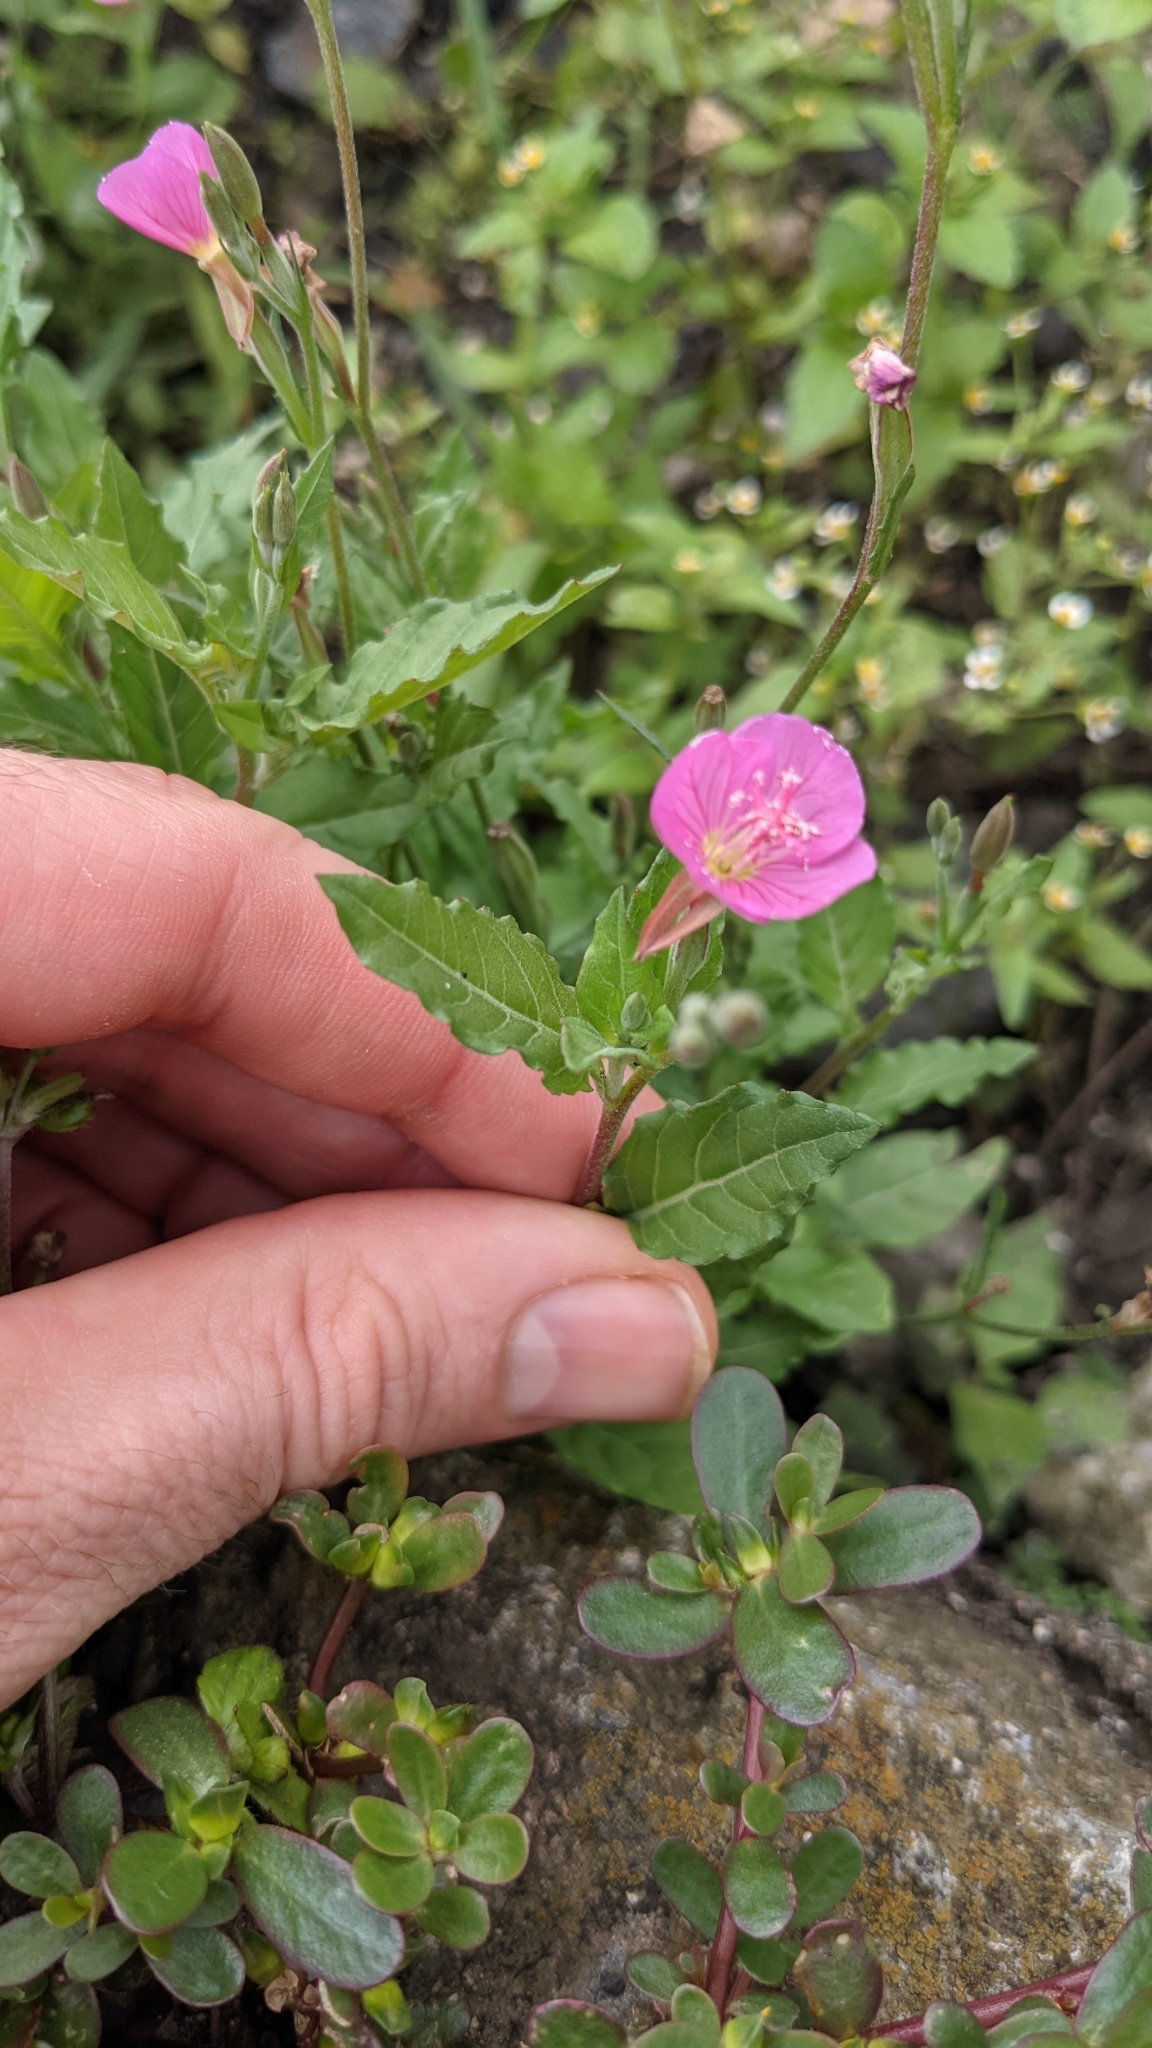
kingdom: Plantae
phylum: Tracheophyta
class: Magnoliopsida
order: Myrtales
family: Onagraceae
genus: Oenothera
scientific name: Oenothera rosea
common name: Rosy evening-primrose
